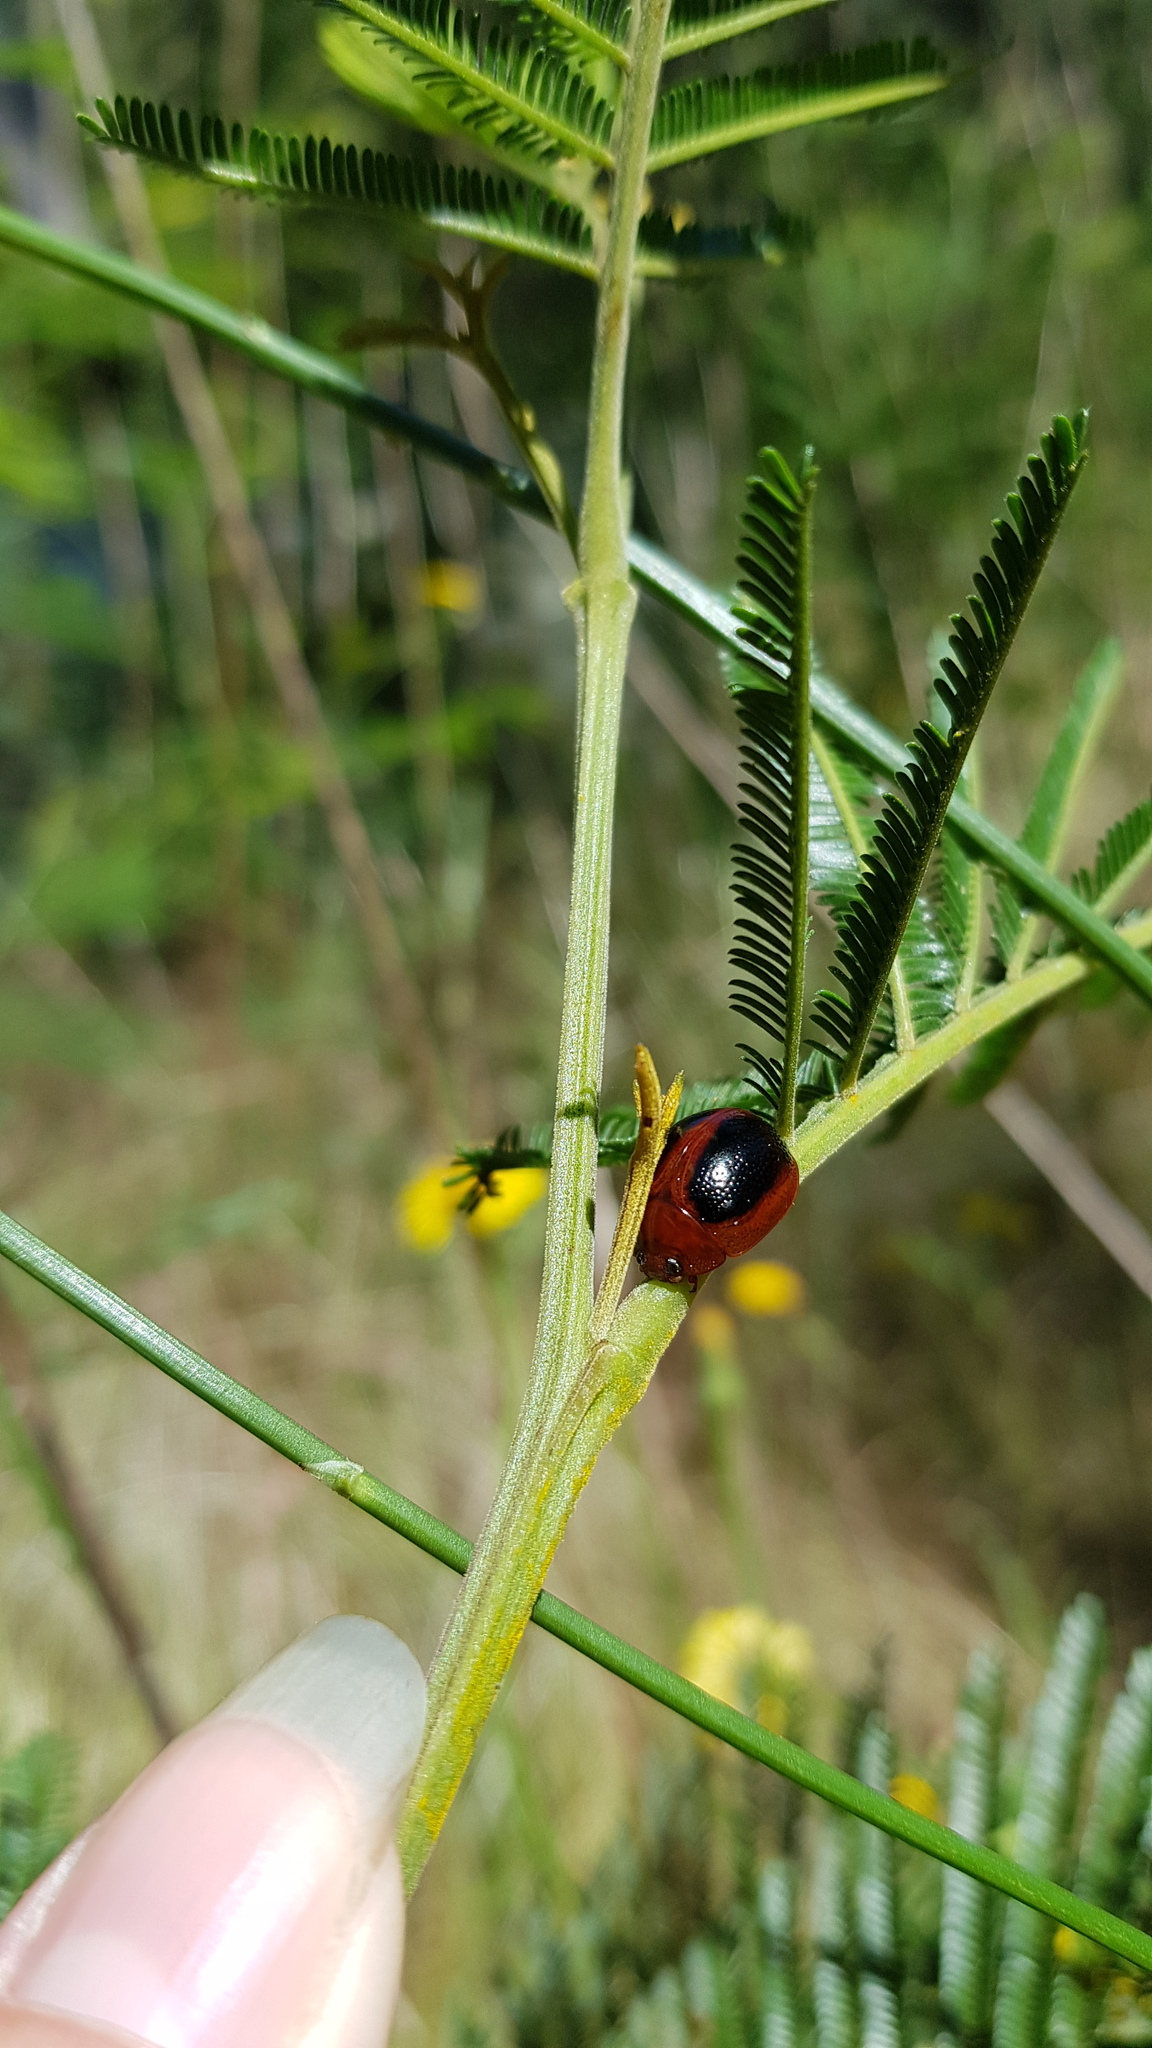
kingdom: Animalia
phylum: Arthropoda
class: Insecta
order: Coleoptera
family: Chrysomelidae
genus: Dicranosterna
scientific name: Dicranosterna
